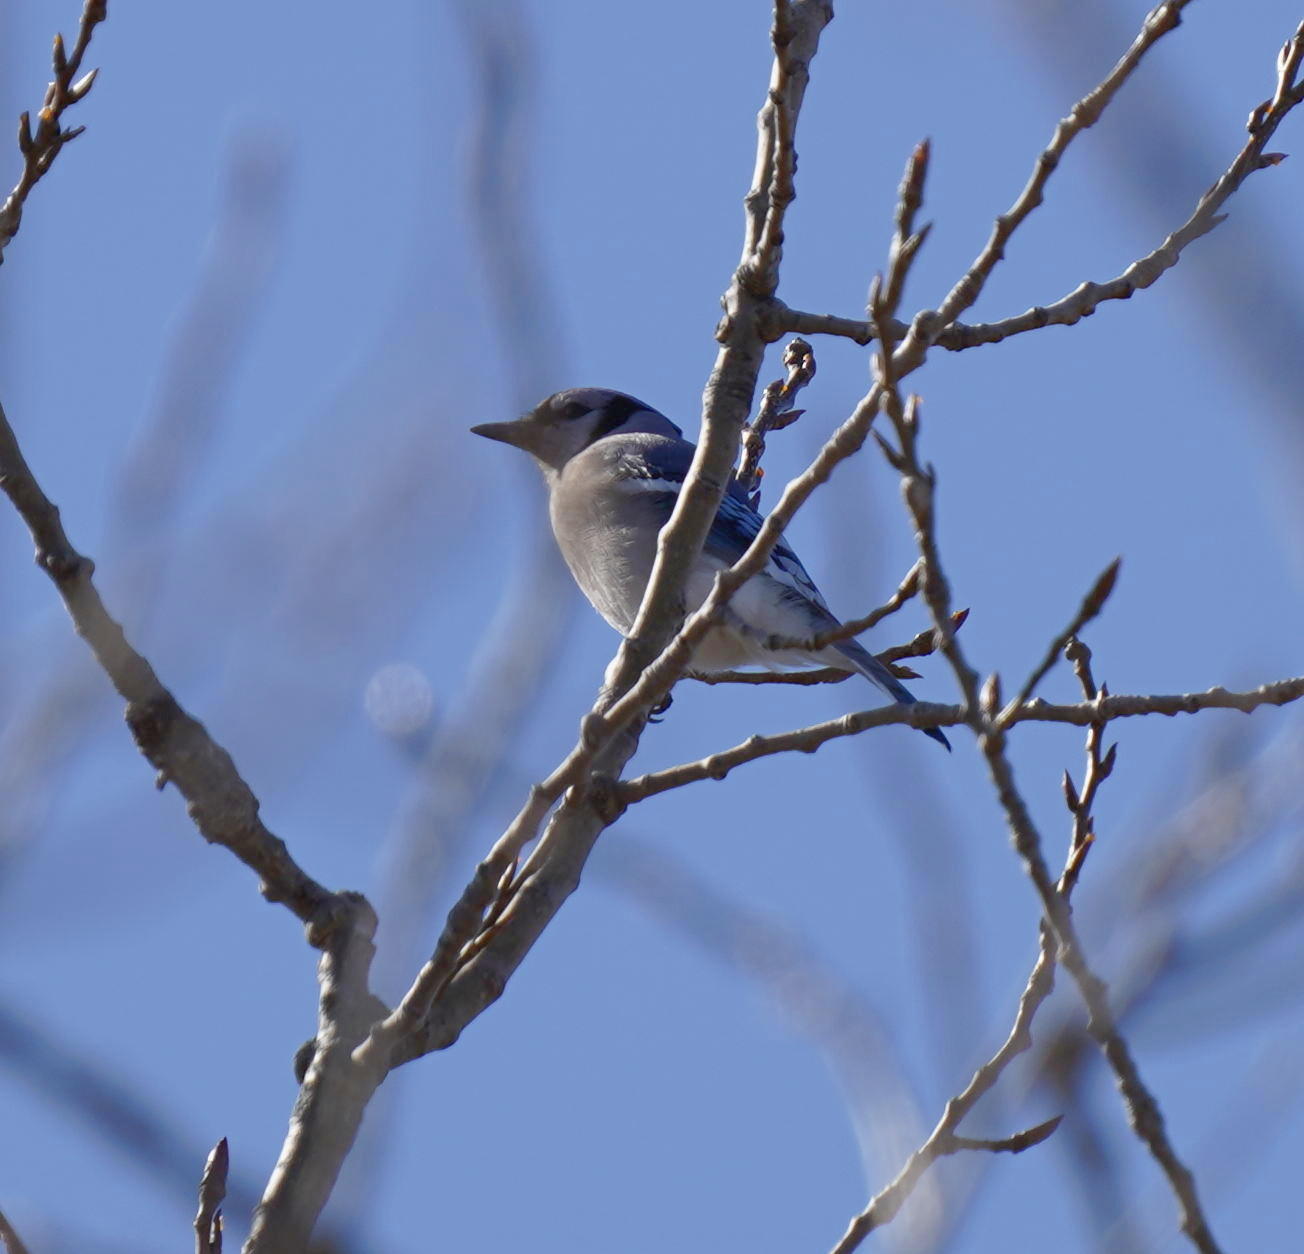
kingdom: Animalia
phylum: Chordata
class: Aves
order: Passeriformes
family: Corvidae
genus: Cyanocitta
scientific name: Cyanocitta cristata
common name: Blue jay
